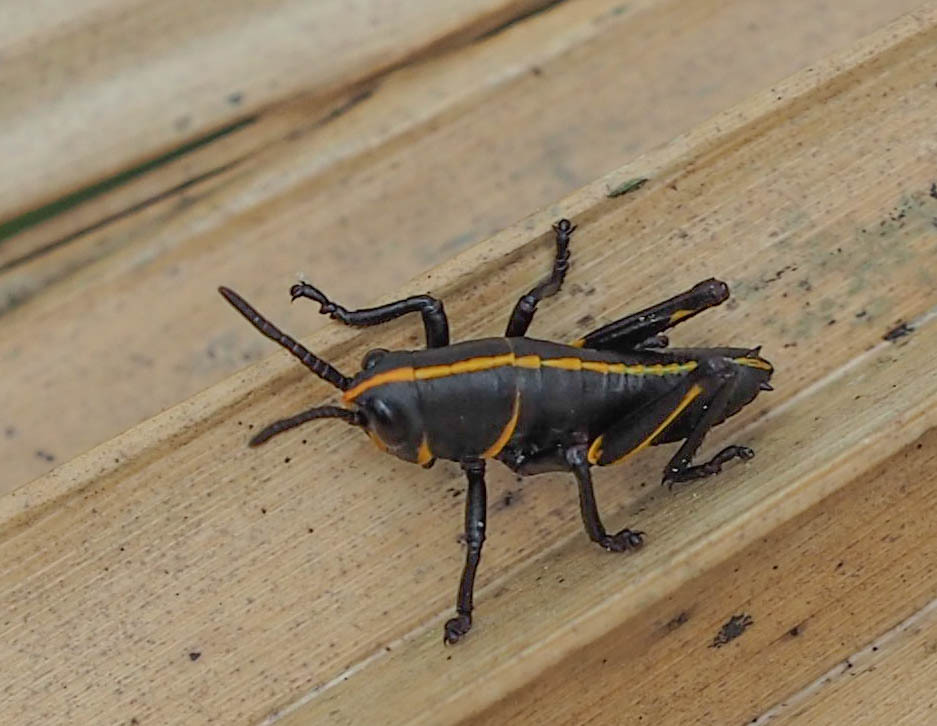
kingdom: Animalia
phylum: Arthropoda
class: Insecta
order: Orthoptera
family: Romaleidae
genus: Romalea
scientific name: Romalea microptera
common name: Eastern lubber grasshopper
